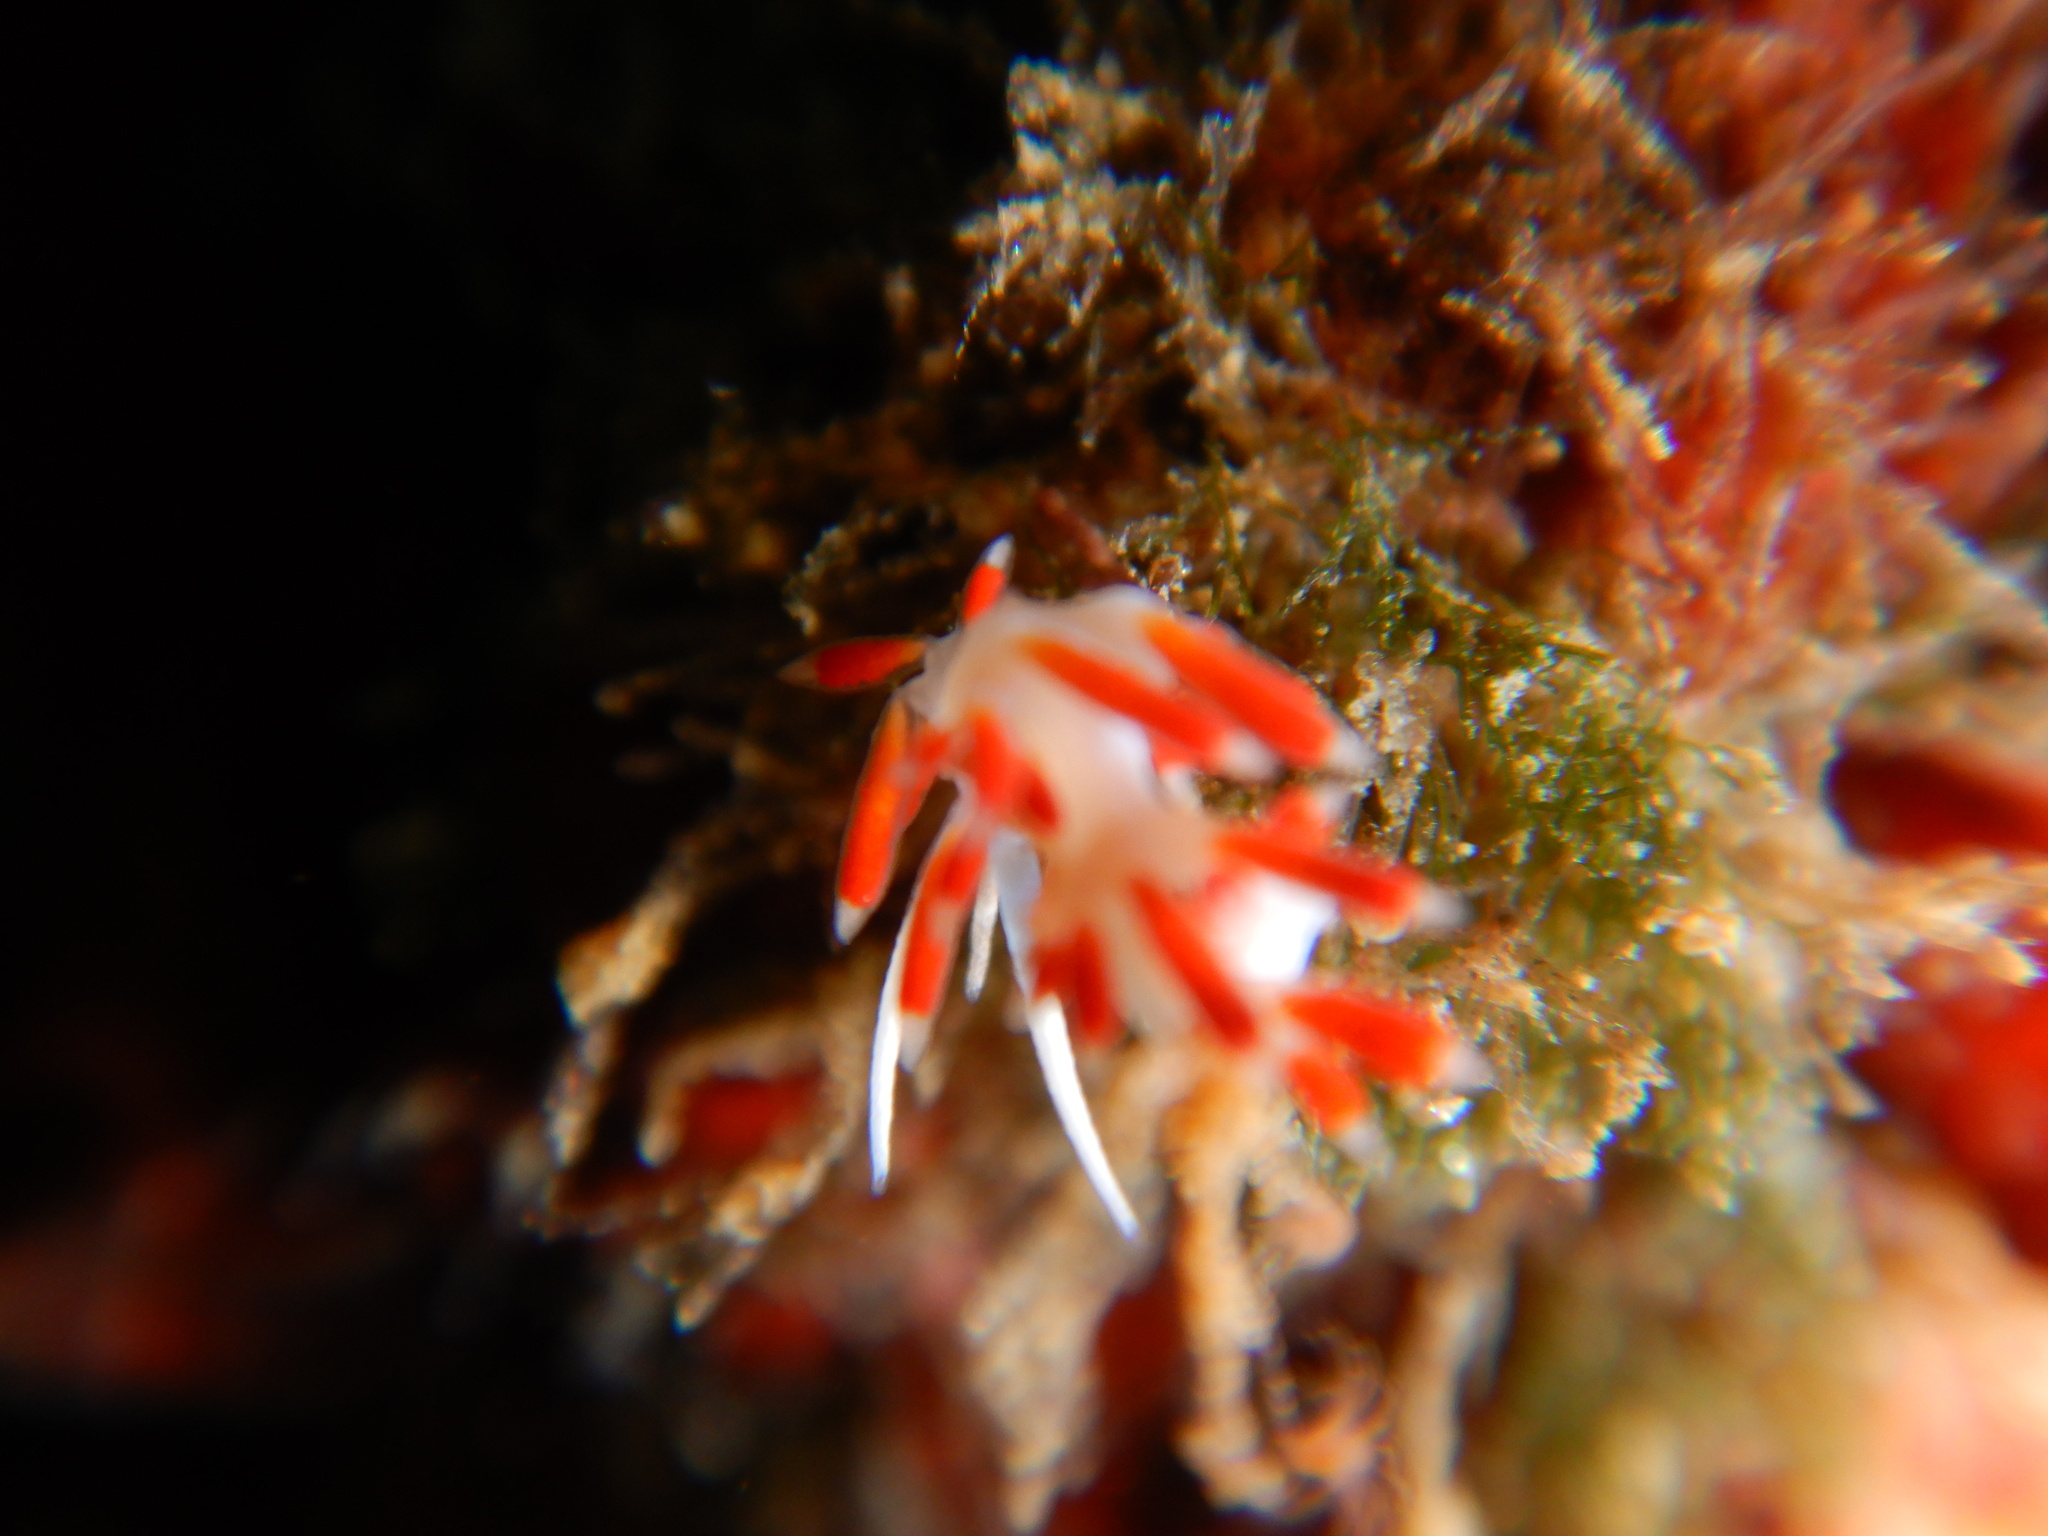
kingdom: Animalia
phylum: Mollusca
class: Gastropoda
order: Nudibranchia
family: Flabellinidae
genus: Calmella
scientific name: Calmella cavolini
